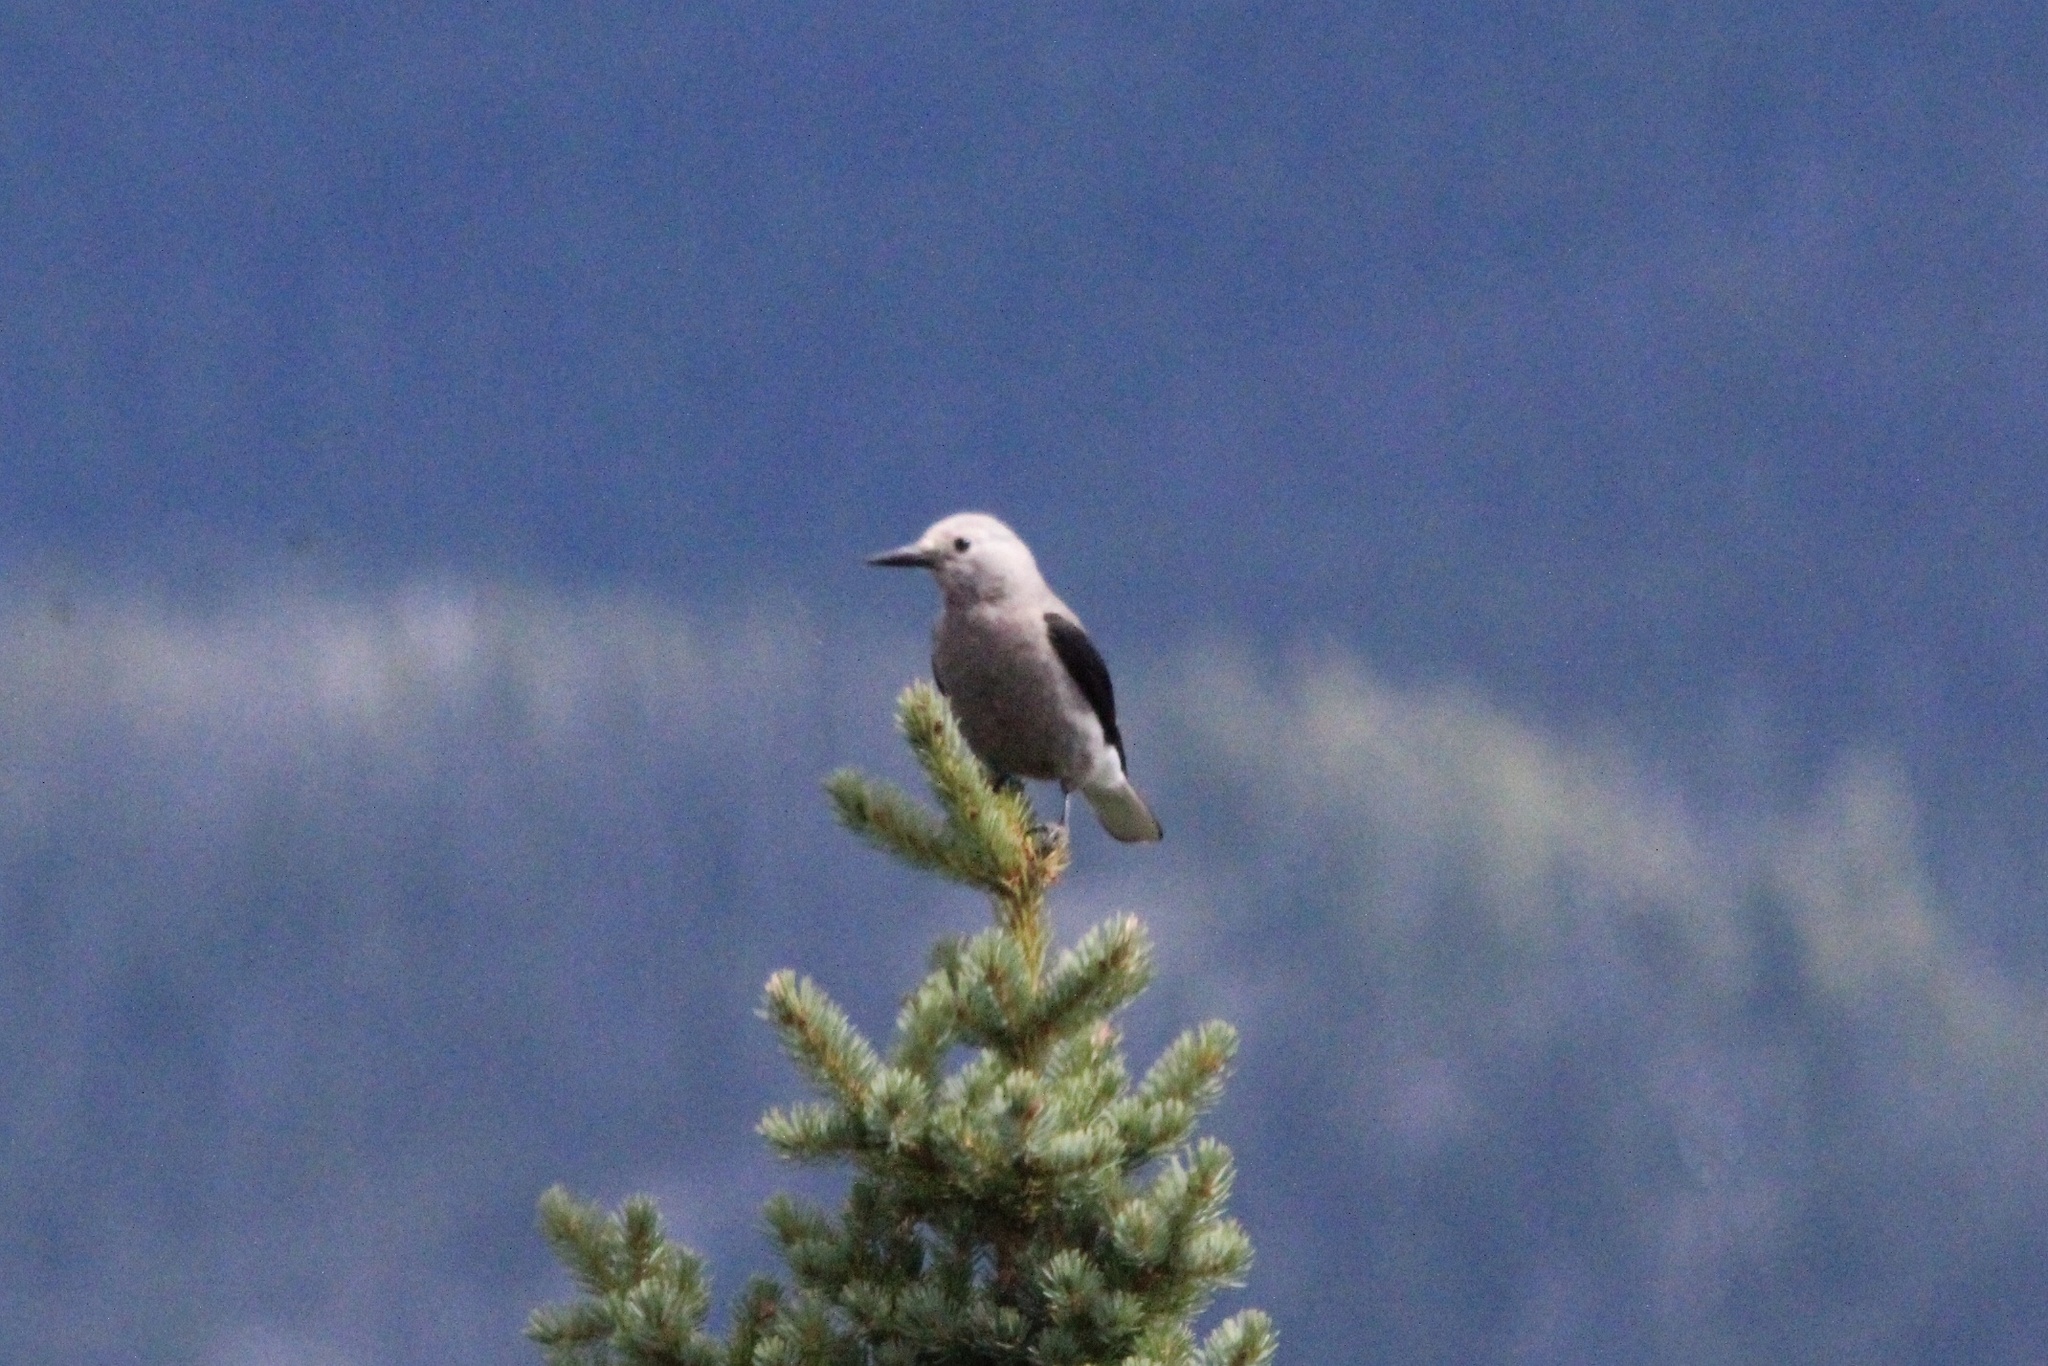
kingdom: Animalia
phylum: Chordata
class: Aves
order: Passeriformes
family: Corvidae
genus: Nucifraga
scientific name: Nucifraga columbiana
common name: Clark's nutcracker
